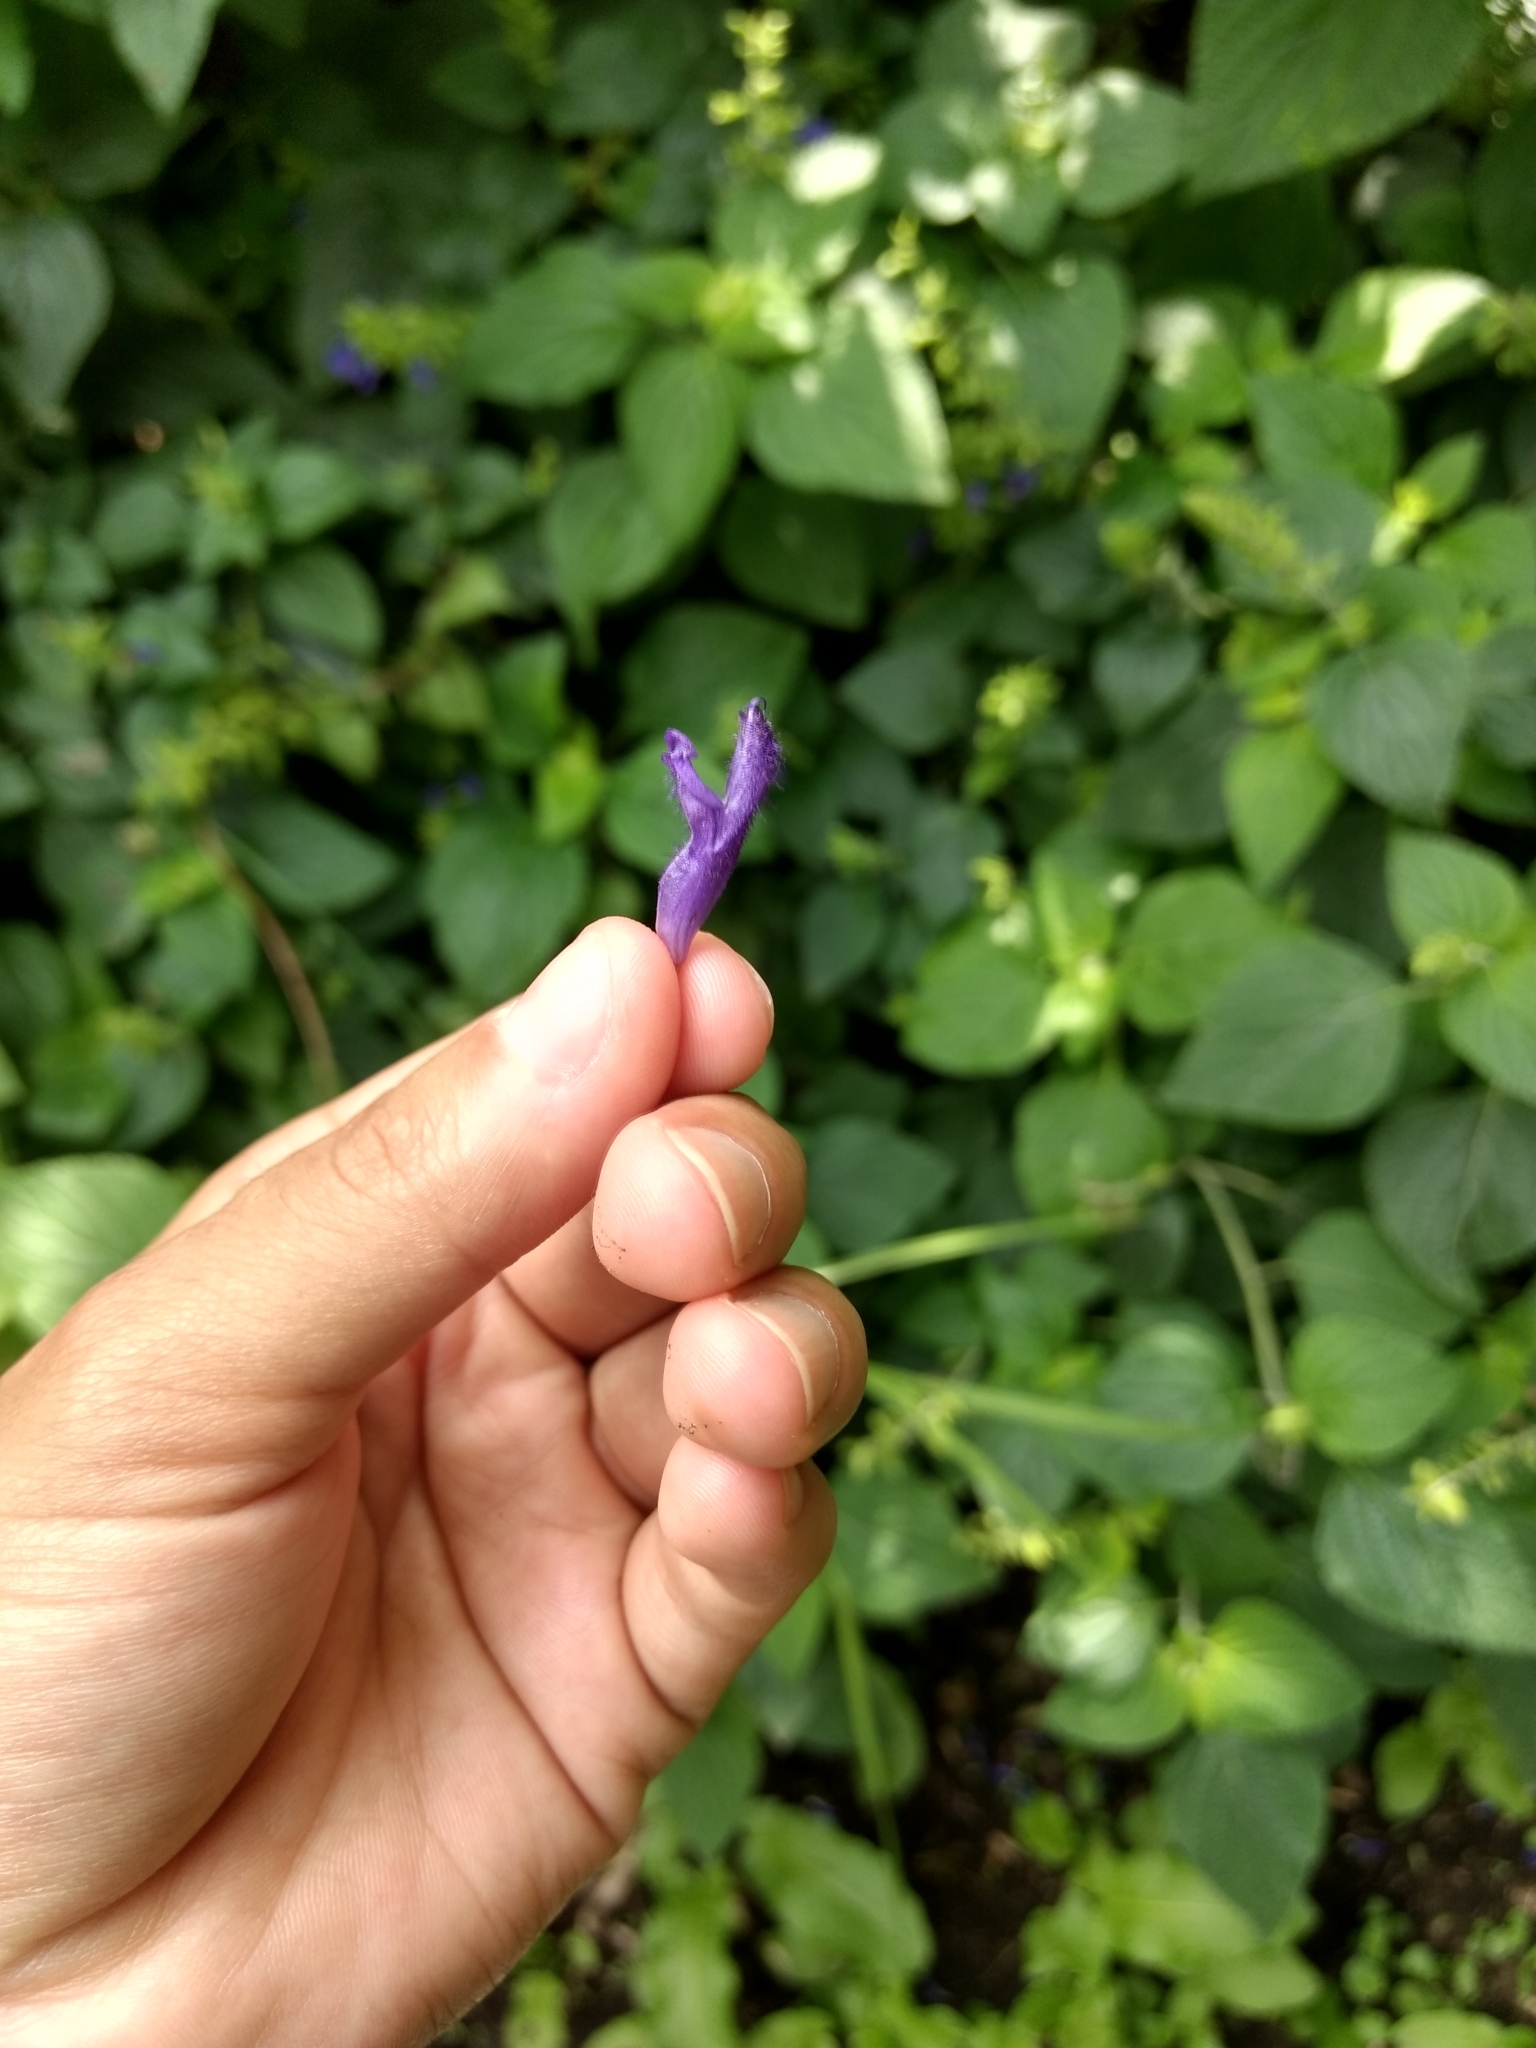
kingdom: Plantae
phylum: Tracheophyta
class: Magnoliopsida
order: Lamiales
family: Lamiaceae
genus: Salvia
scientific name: Salvia mexicana
